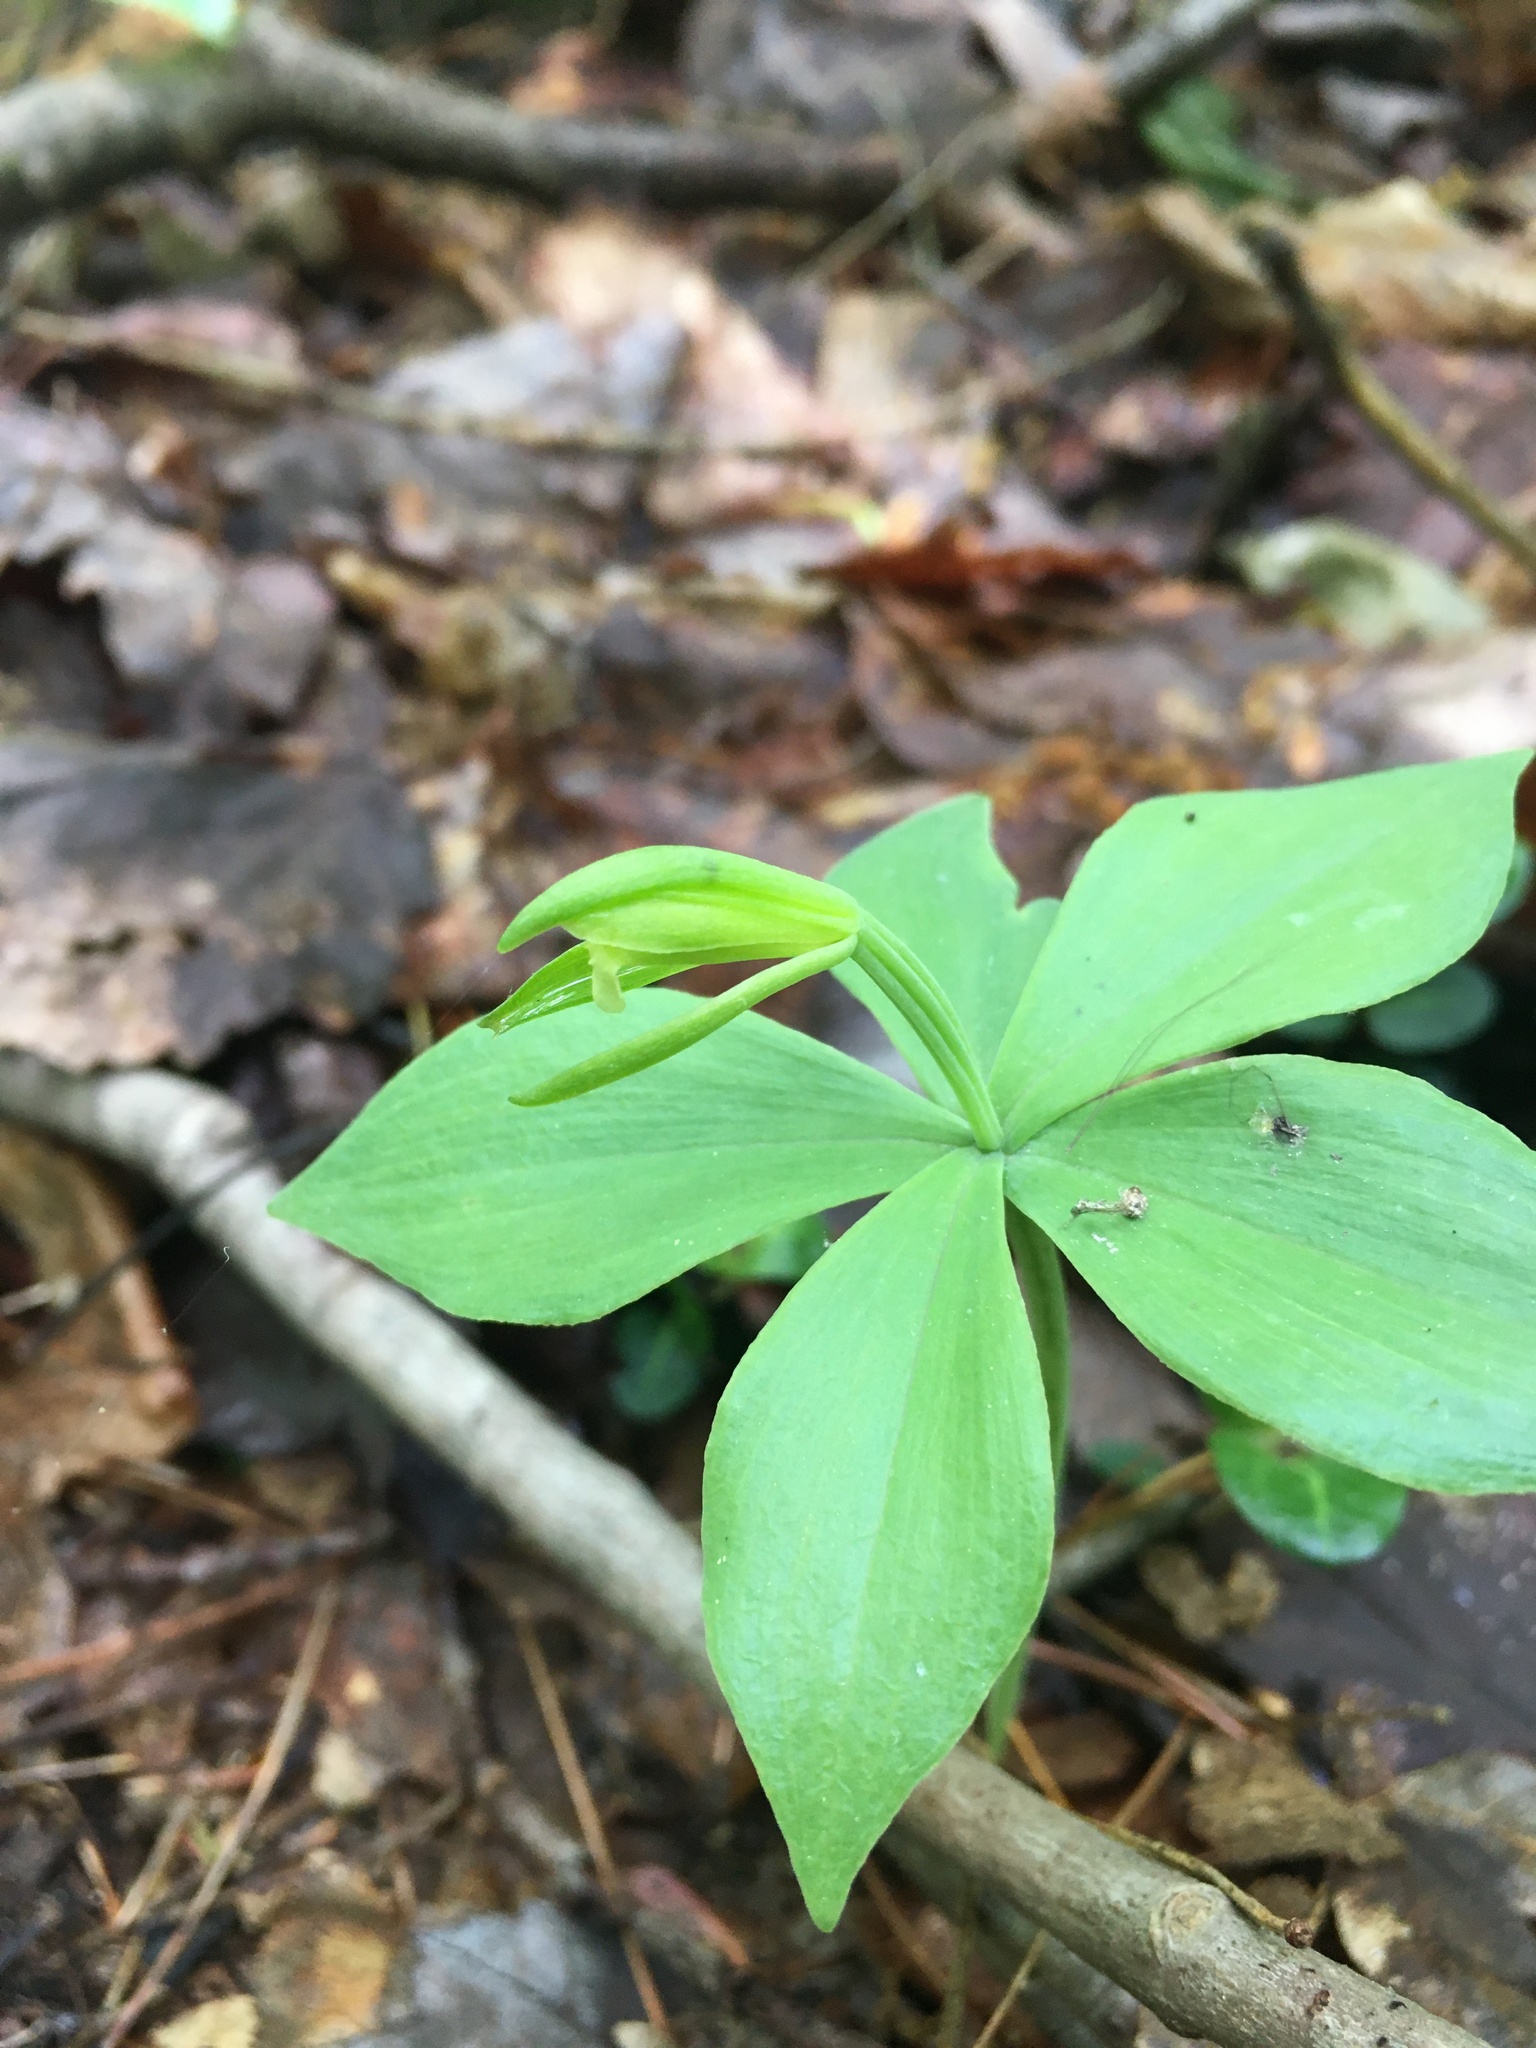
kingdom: Plantae
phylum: Tracheophyta
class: Liliopsida
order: Asparagales
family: Orchidaceae
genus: Isotria
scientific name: Isotria medeoloides
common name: Small whorled pogonia
